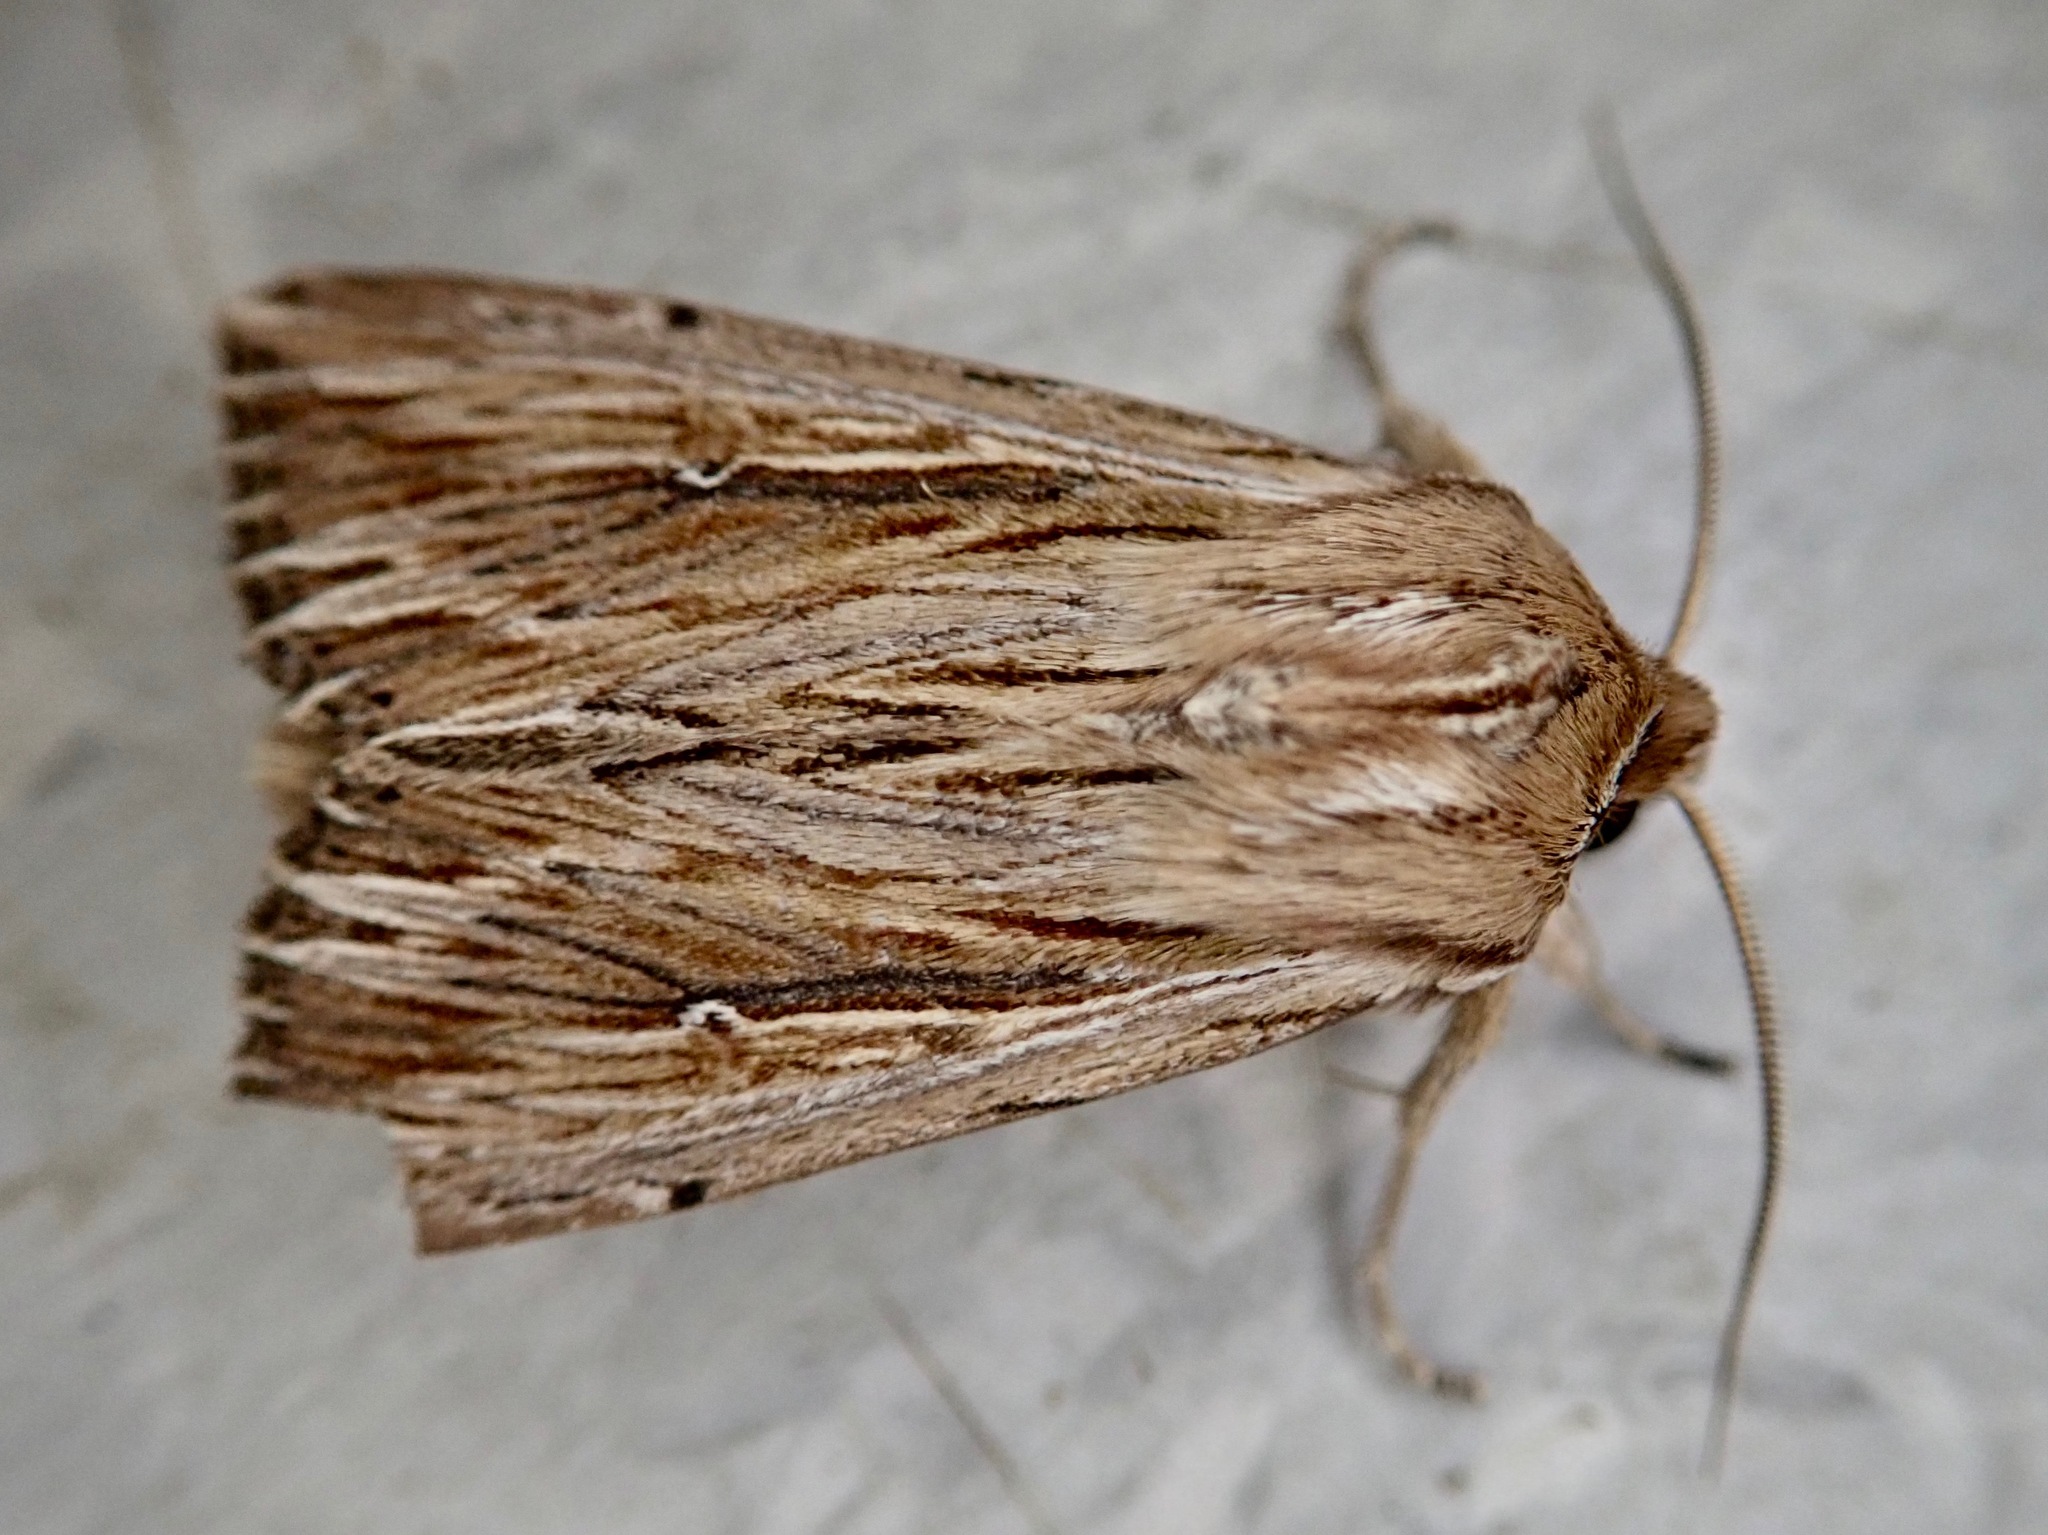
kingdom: Animalia
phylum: Arthropoda
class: Insecta
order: Lepidoptera
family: Noctuidae
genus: Persectania
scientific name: Persectania aversa
